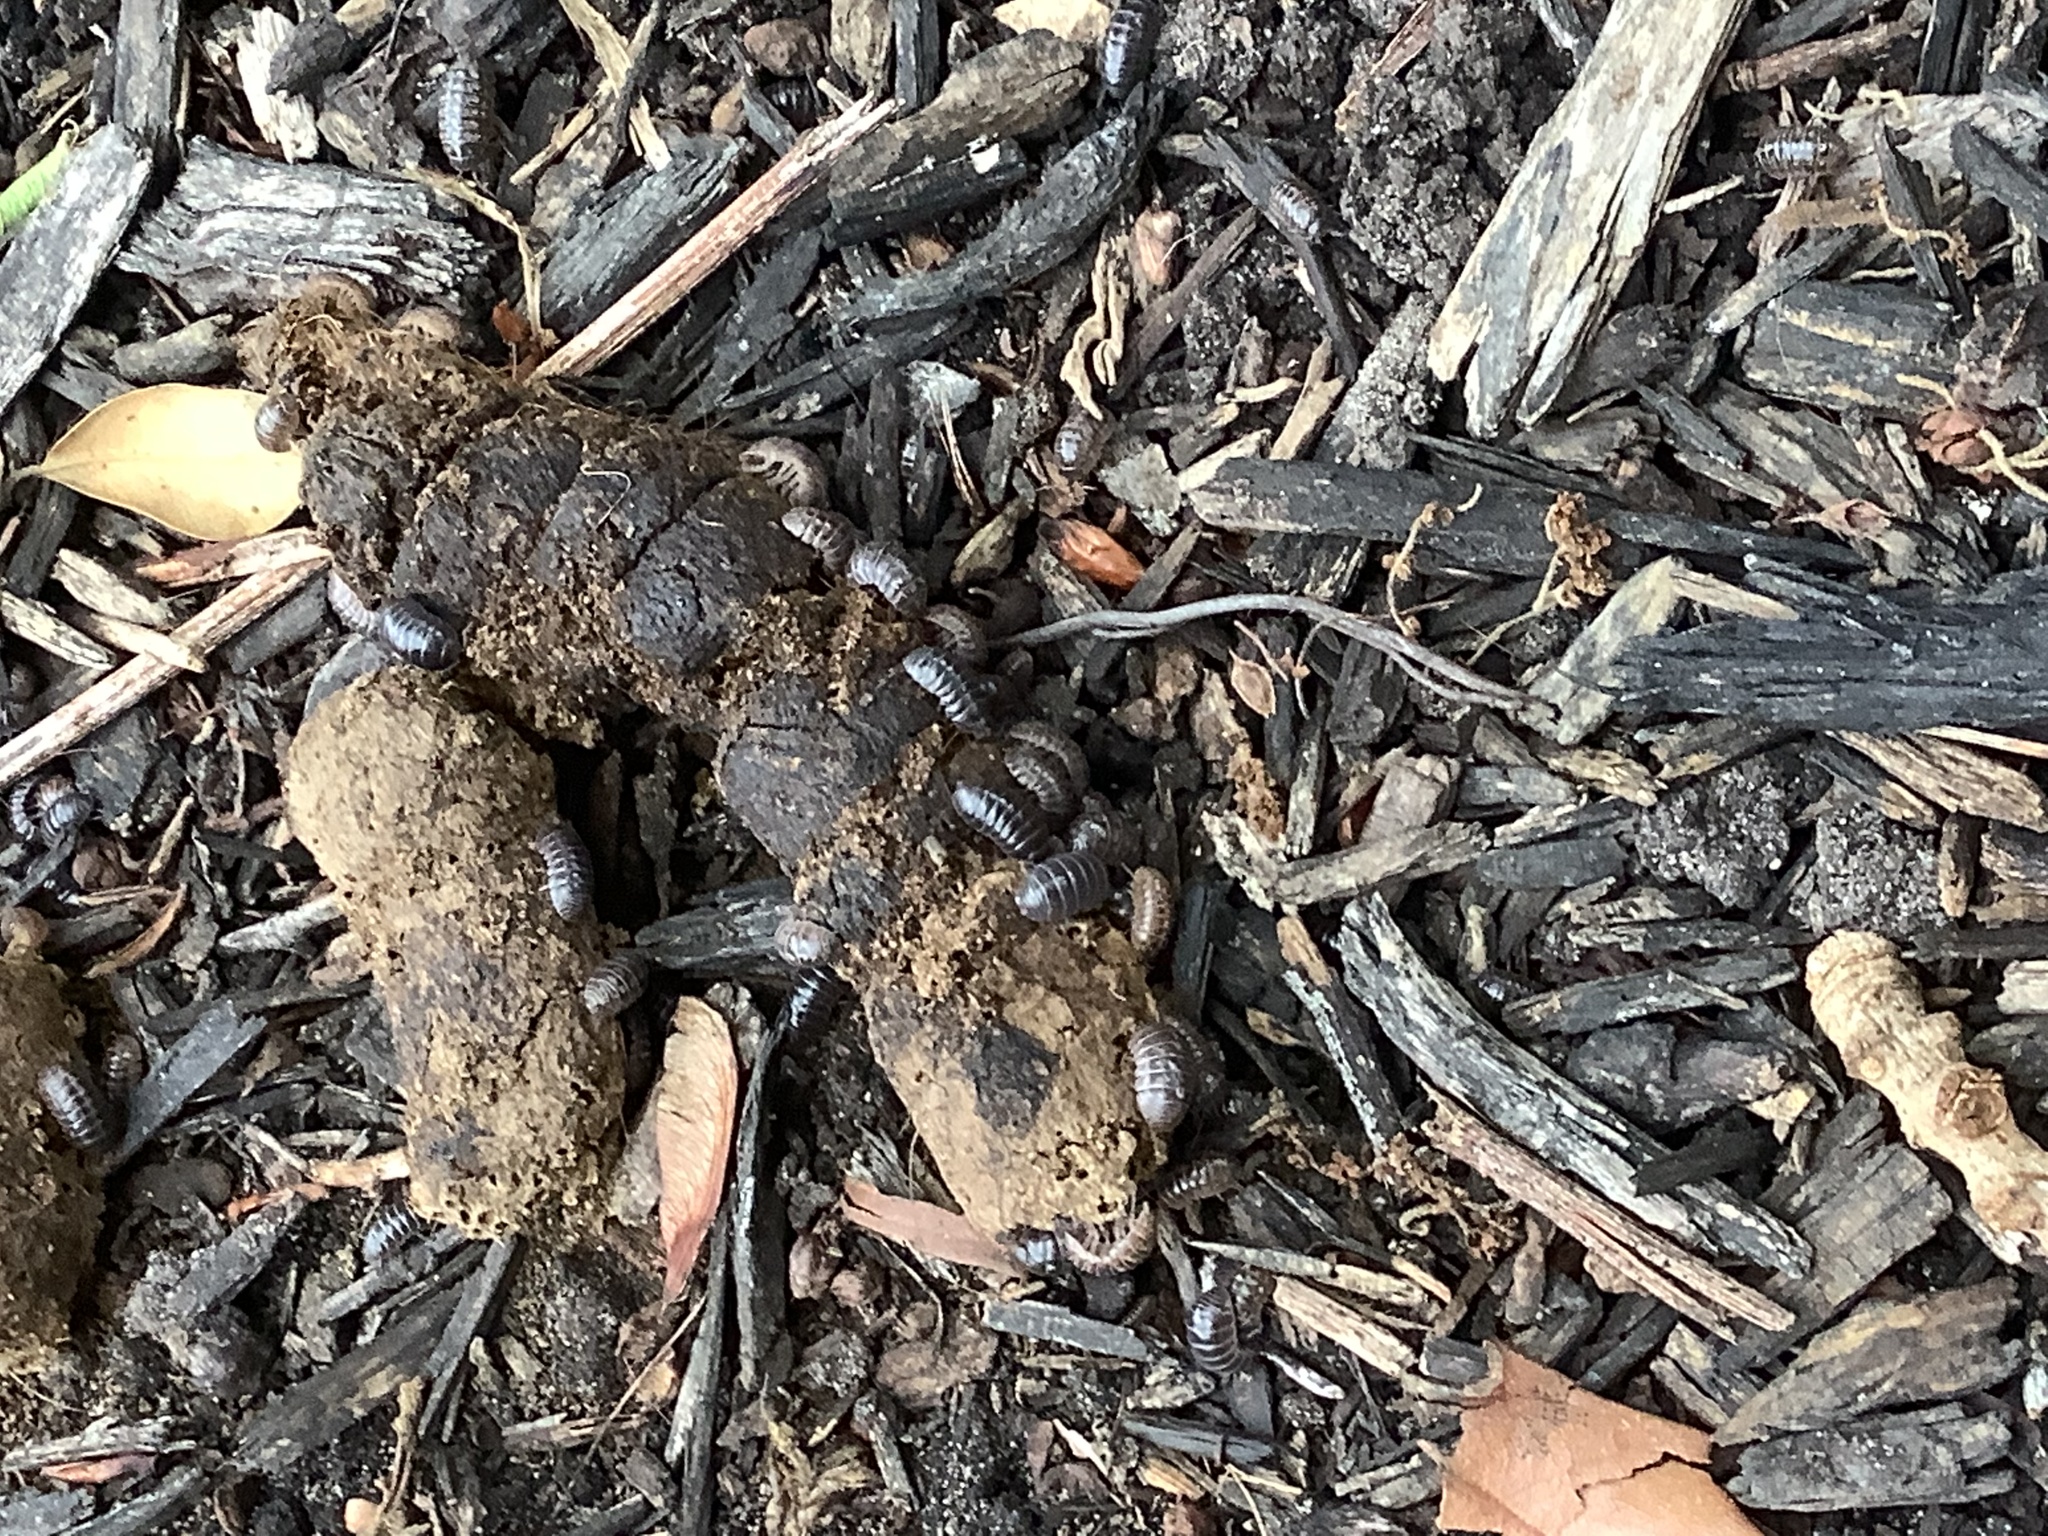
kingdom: Animalia
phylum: Arthropoda
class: Malacostraca
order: Isopoda
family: Armadillidiidae
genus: Armadillidium
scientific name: Armadillidium vulgare
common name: Common pill woodlouse
